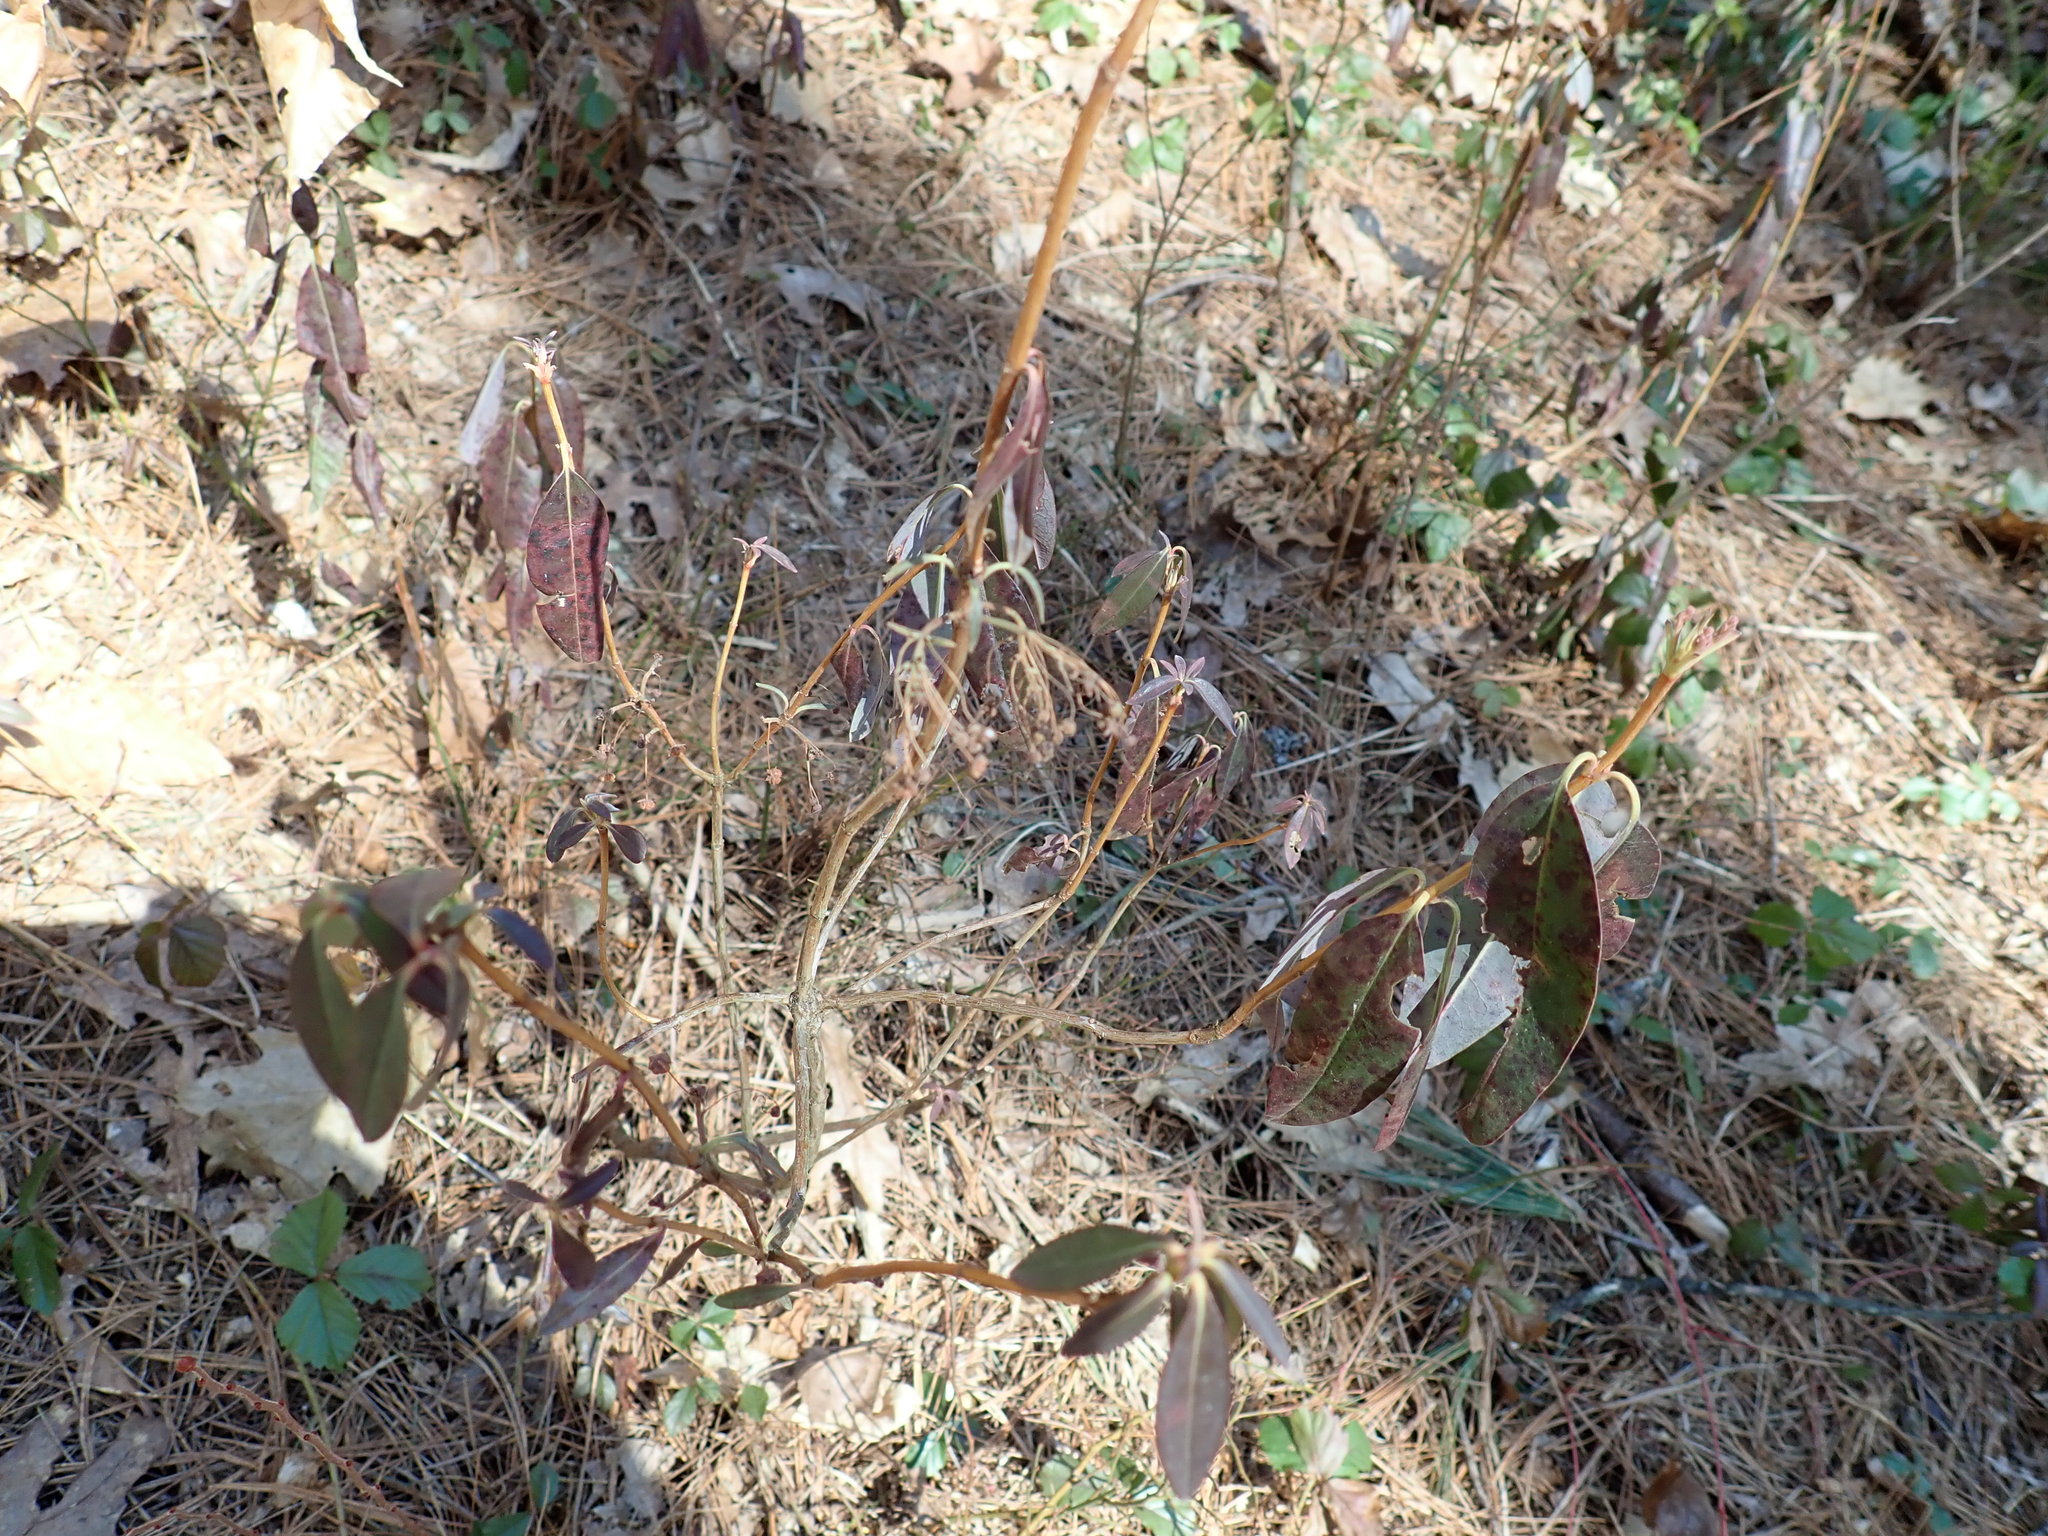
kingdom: Plantae
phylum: Tracheophyta
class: Magnoliopsida
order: Ericales
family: Ericaceae
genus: Kalmia
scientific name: Kalmia angustifolia
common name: Sheep-laurel
